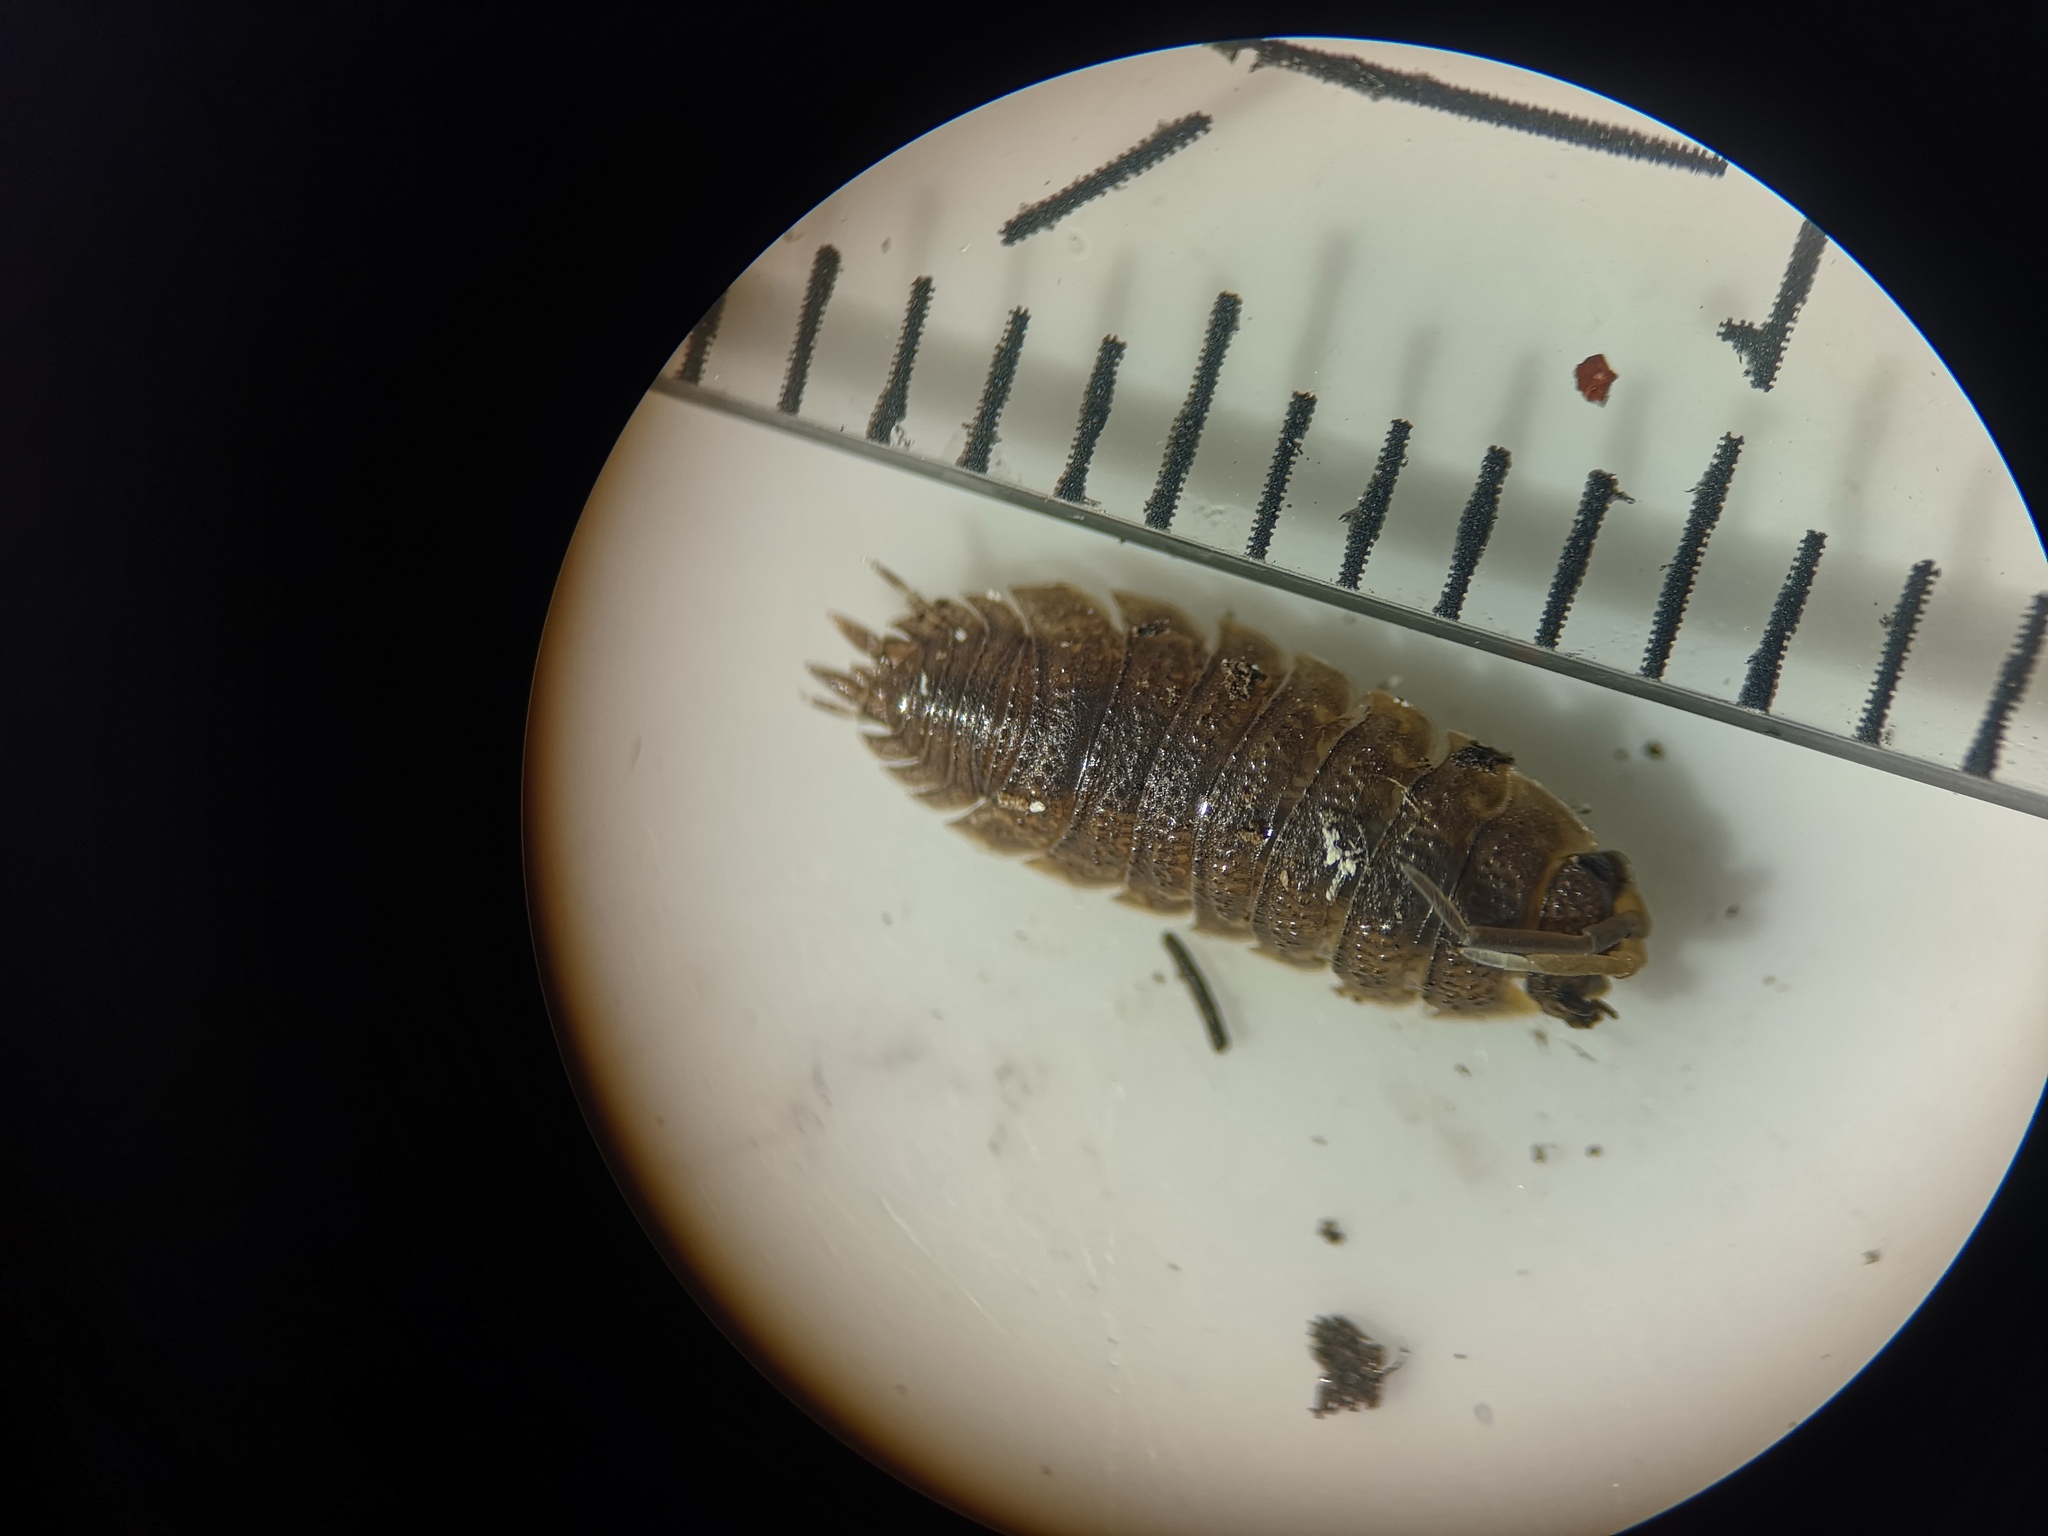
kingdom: Animalia
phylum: Arthropoda
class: Malacostraca
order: Isopoda
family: Porcellionidae
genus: Porcellio
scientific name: Porcellio scaber
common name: Common rough woodlouse
